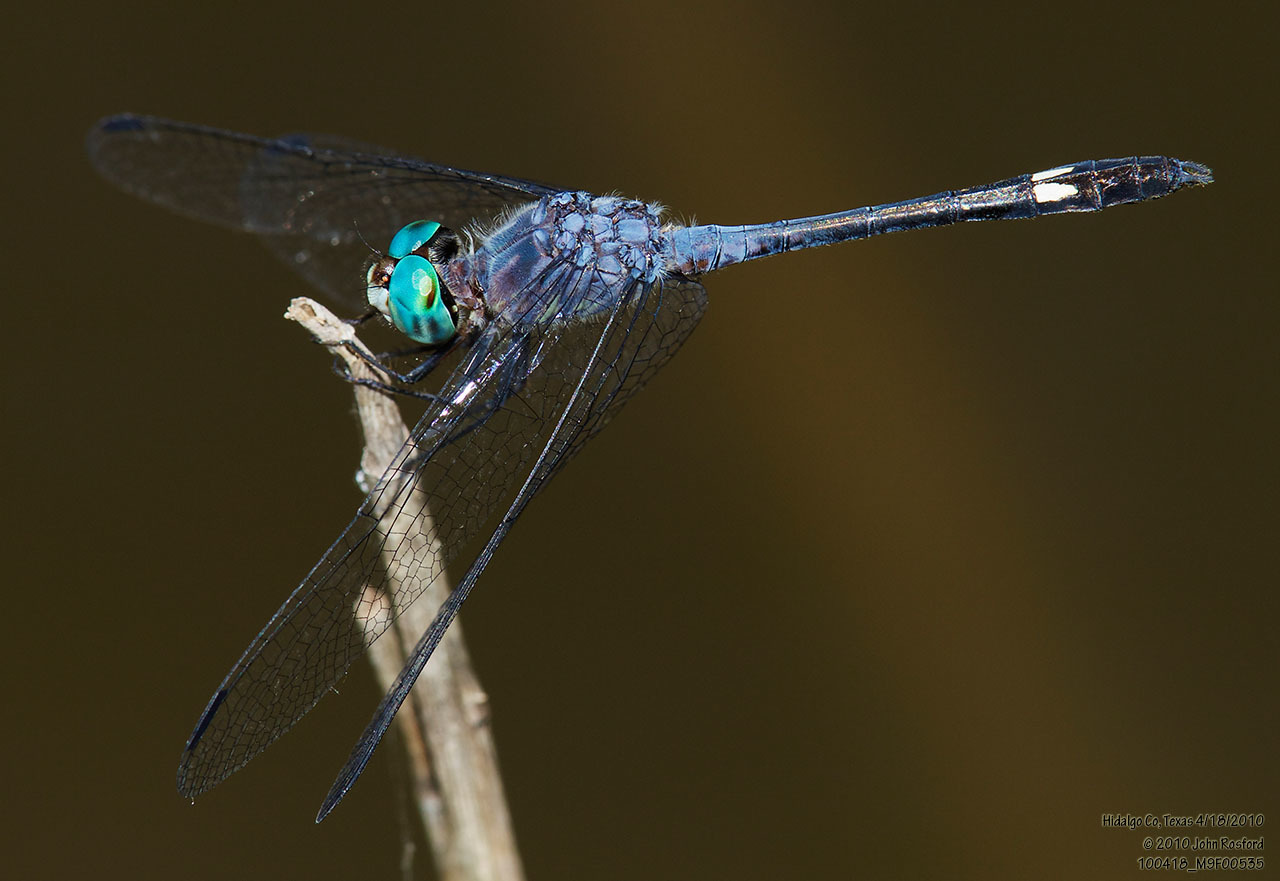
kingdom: Animalia
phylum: Arthropoda
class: Insecta
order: Odonata
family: Libellulidae
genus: Micrathyria
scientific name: Micrathyria aequalis
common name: Spot-tailed dasher
